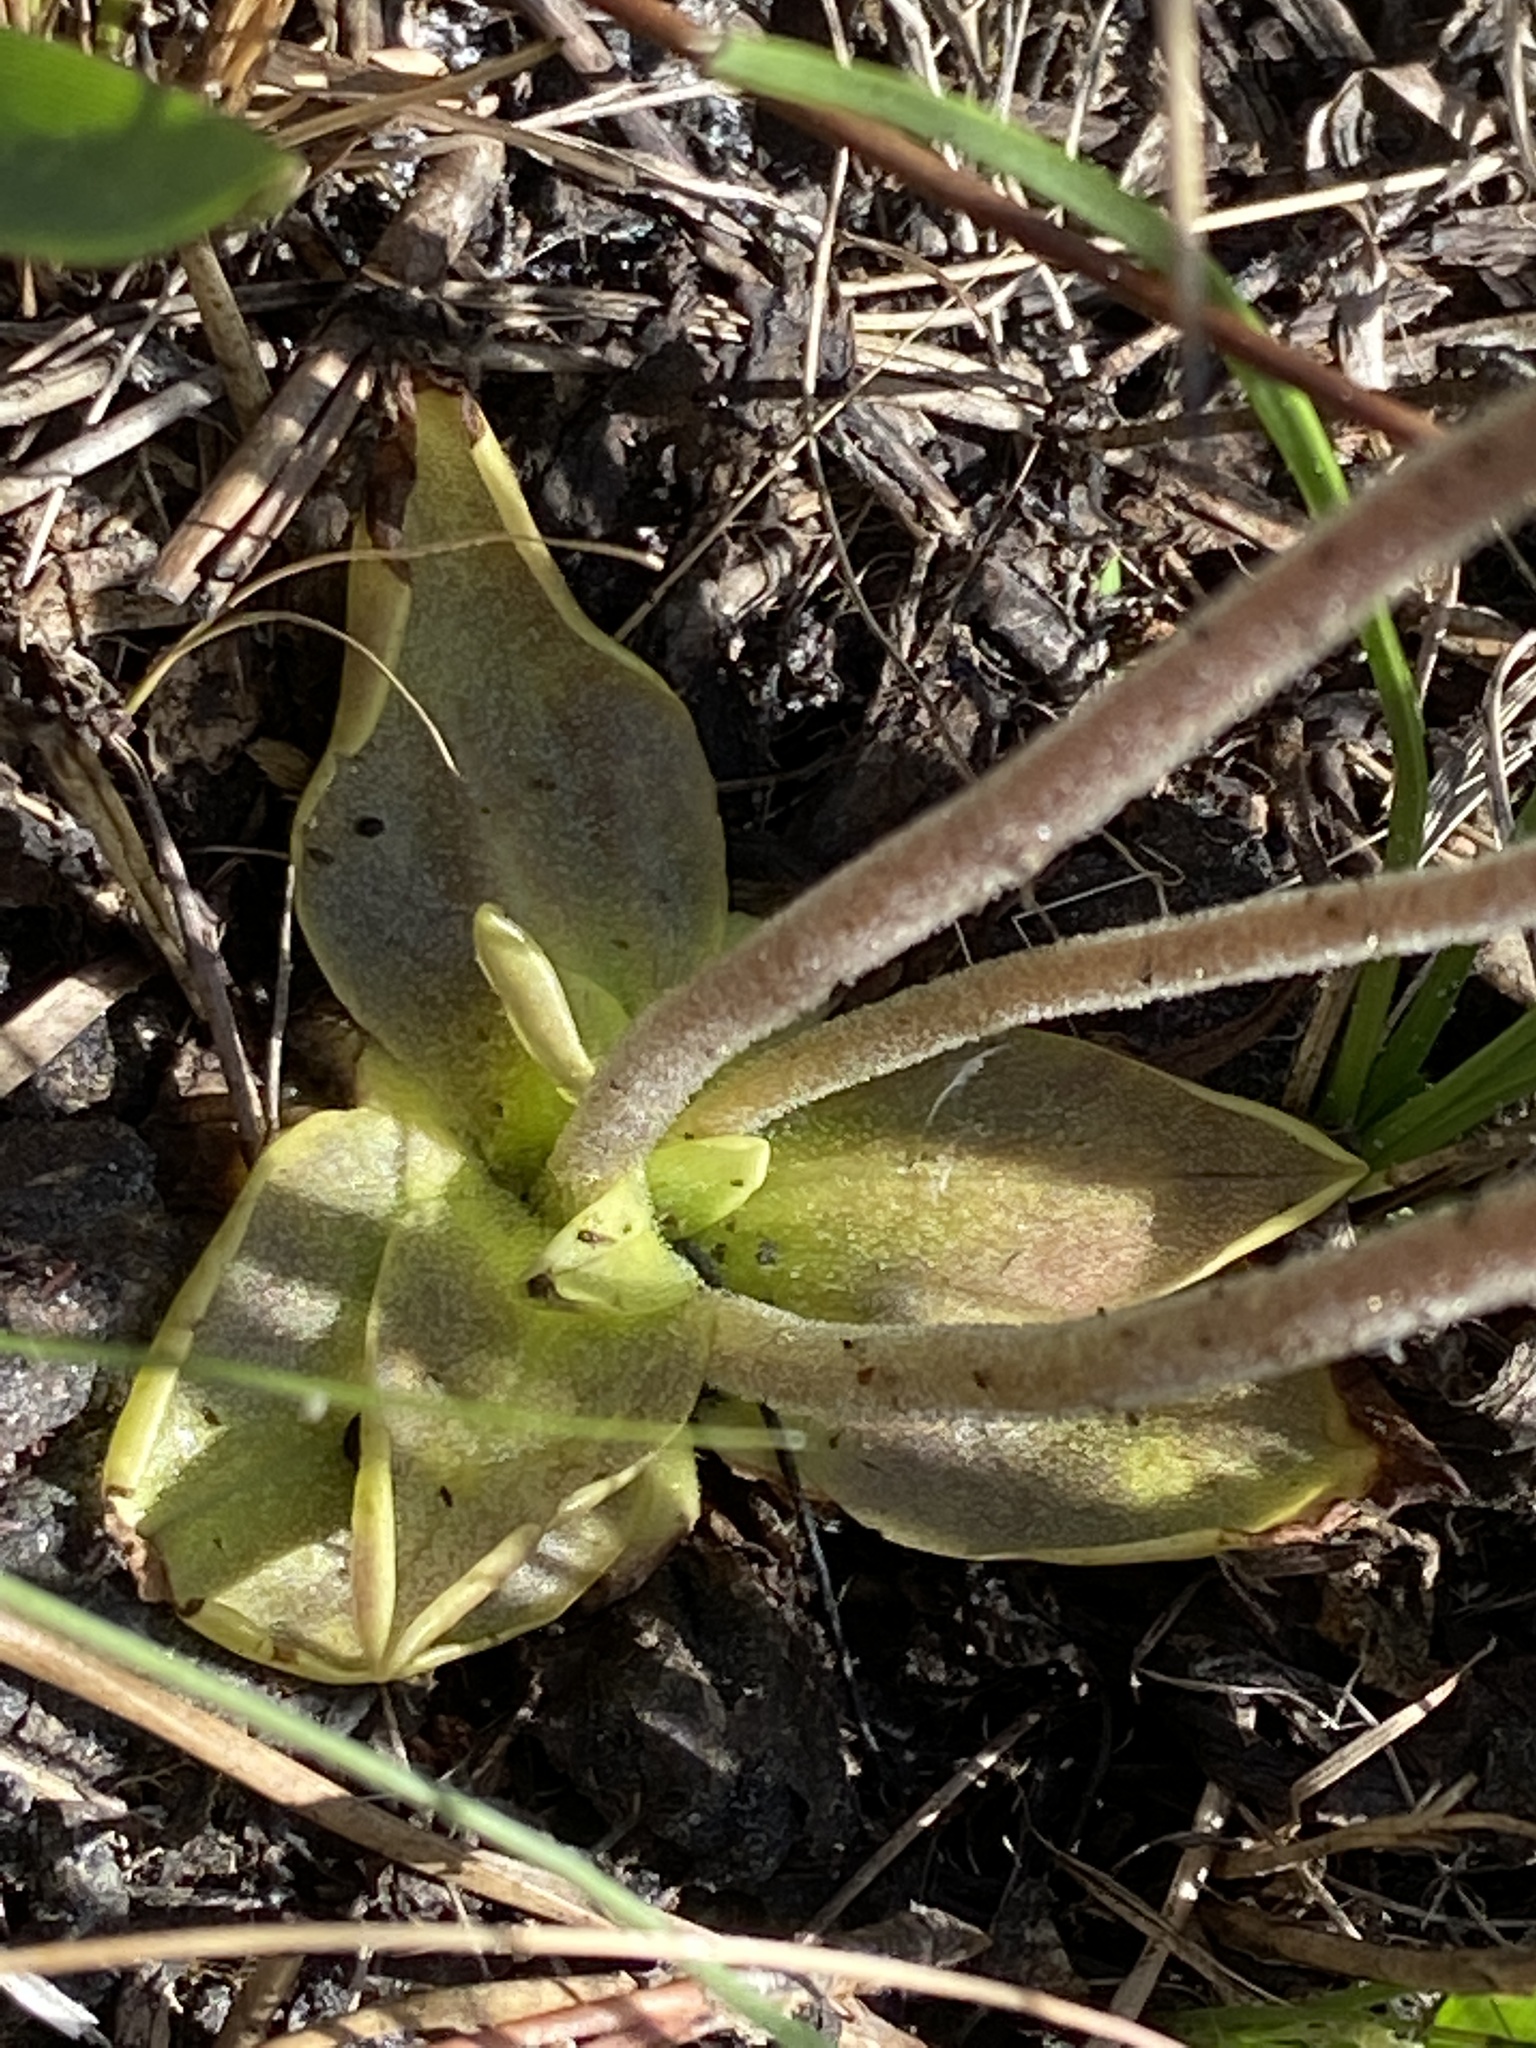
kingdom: Plantae
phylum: Tracheophyta
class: Magnoliopsida
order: Lamiales
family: Lentibulariaceae
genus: Pinguicula
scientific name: Pinguicula lutea
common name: Yellow butterwort
